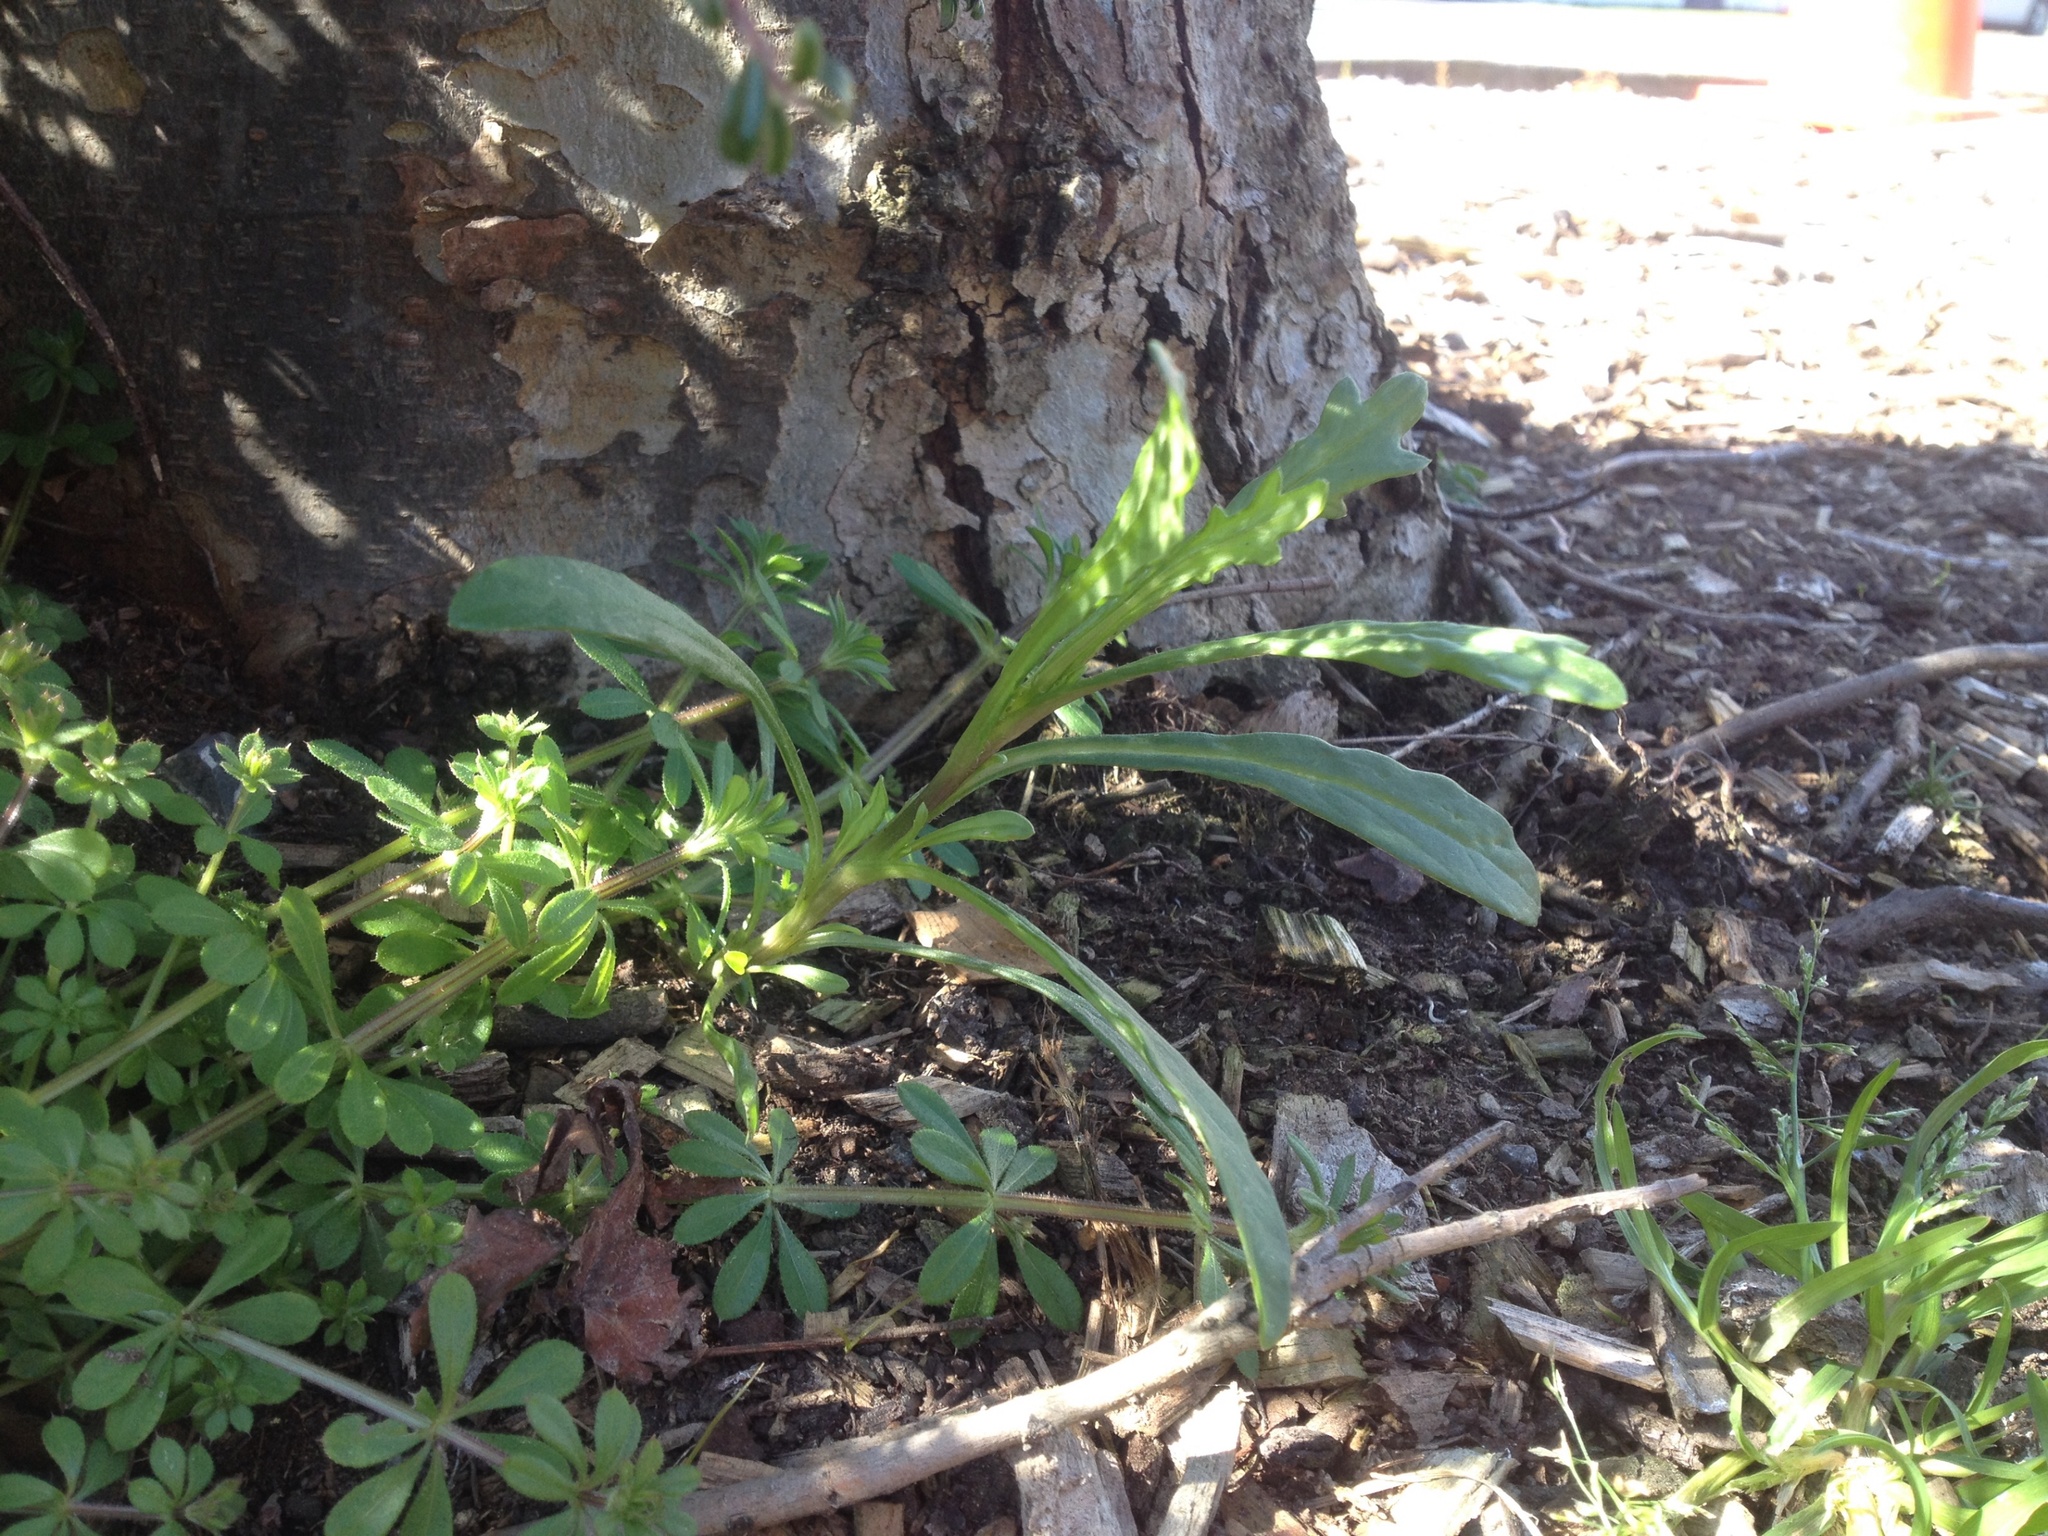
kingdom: Plantae
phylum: Tracheophyta
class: Magnoliopsida
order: Asterales
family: Asteraceae
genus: Senecio
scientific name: Senecio skirrhodon
